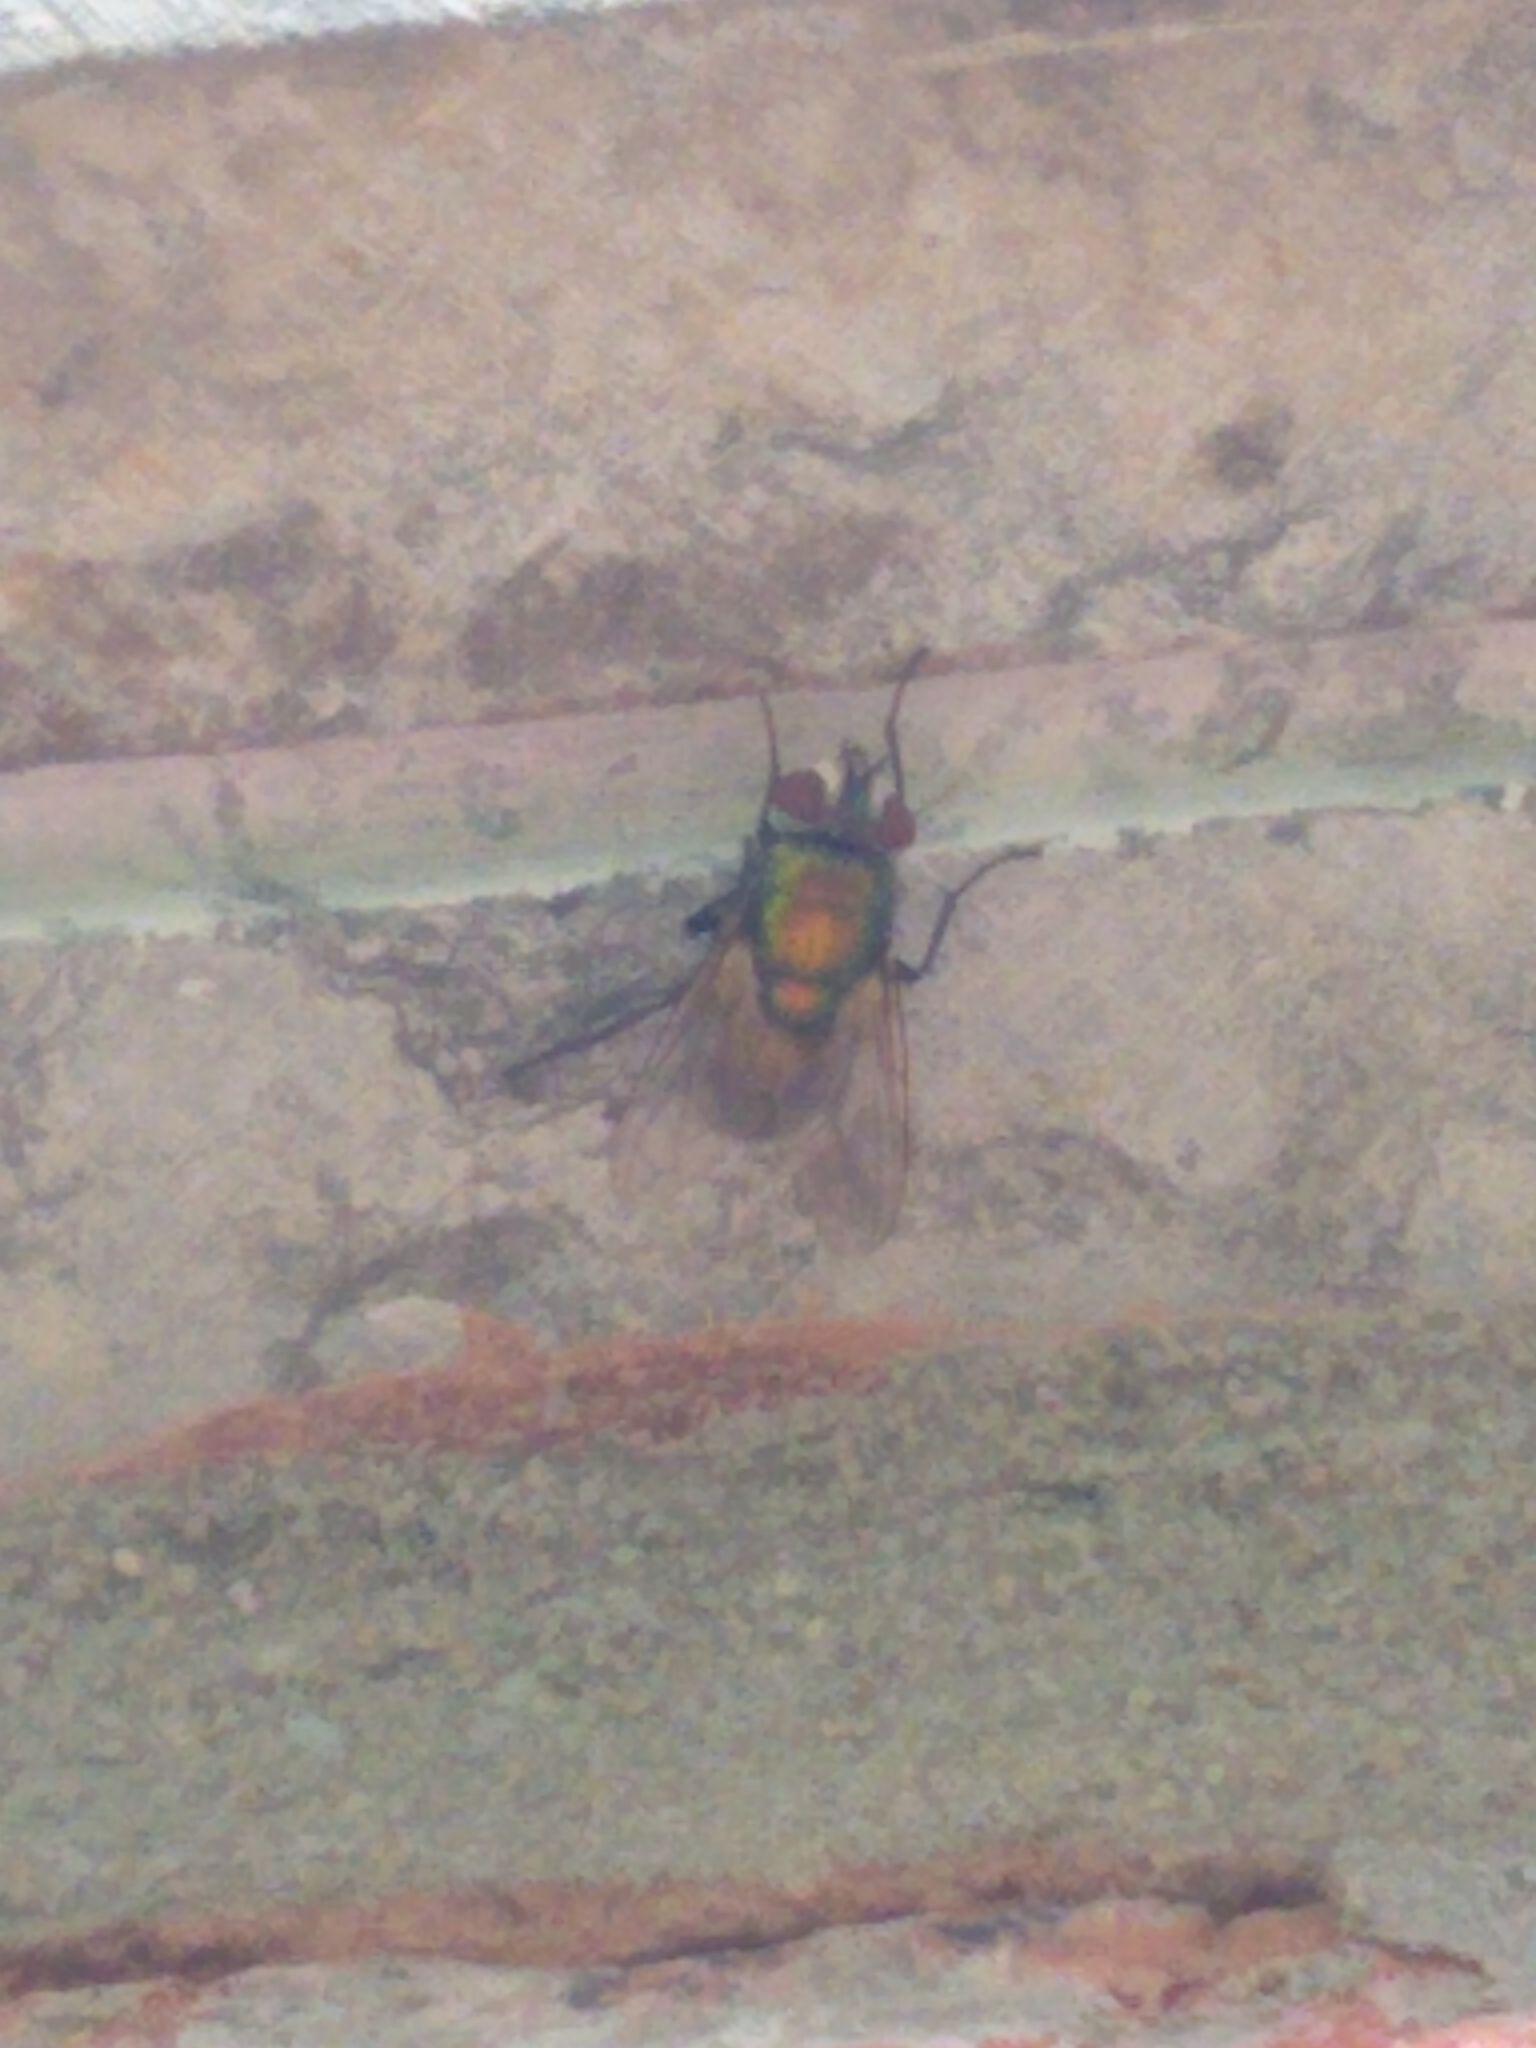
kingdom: Animalia
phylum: Arthropoda
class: Insecta
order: Diptera
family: Calliphoridae
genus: Lucilia
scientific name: Lucilia sericata
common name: Blow fly
